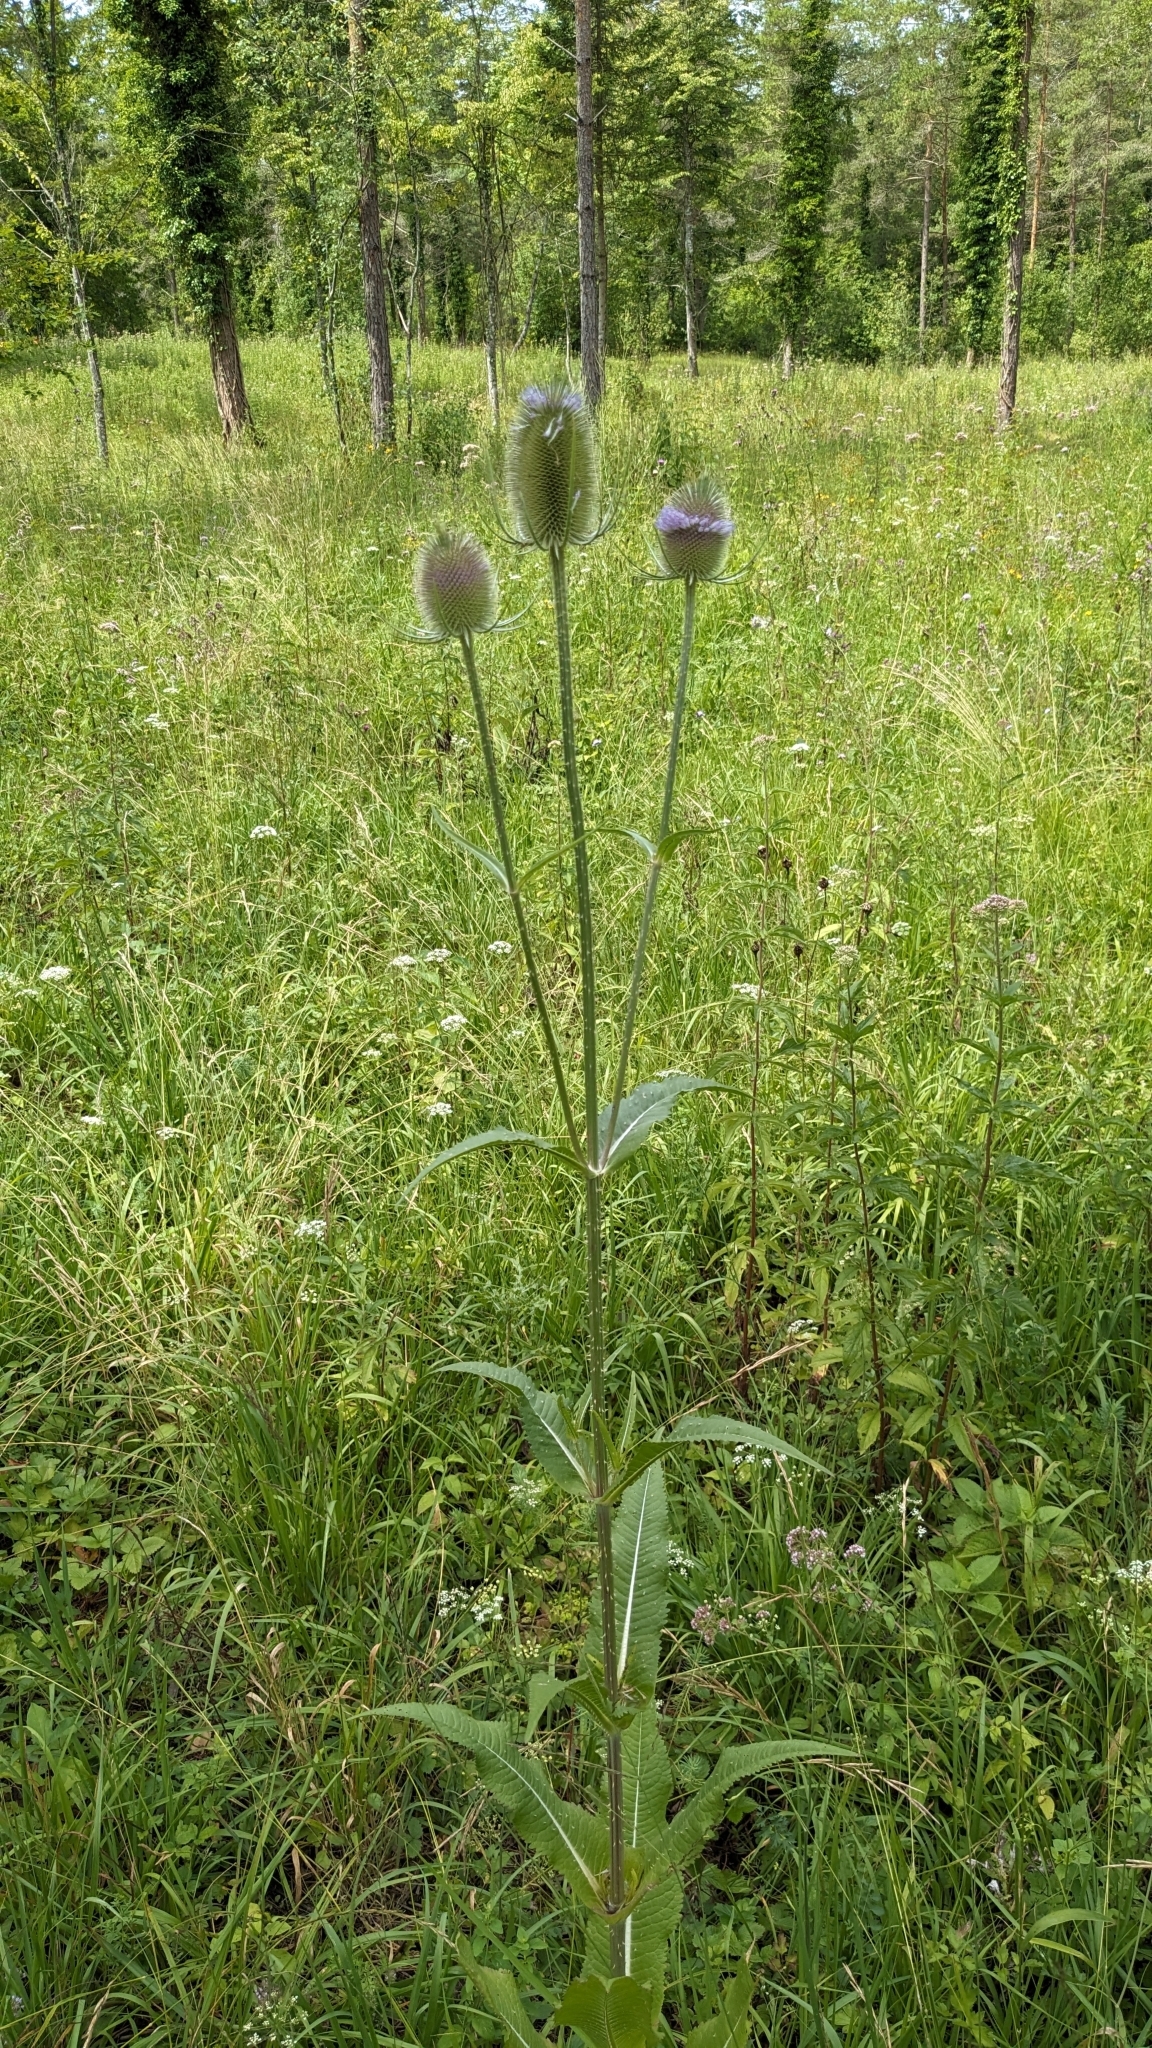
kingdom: Plantae
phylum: Tracheophyta
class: Magnoliopsida
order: Dipsacales
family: Caprifoliaceae
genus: Dipsacus
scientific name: Dipsacus fullonum
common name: Teasel
